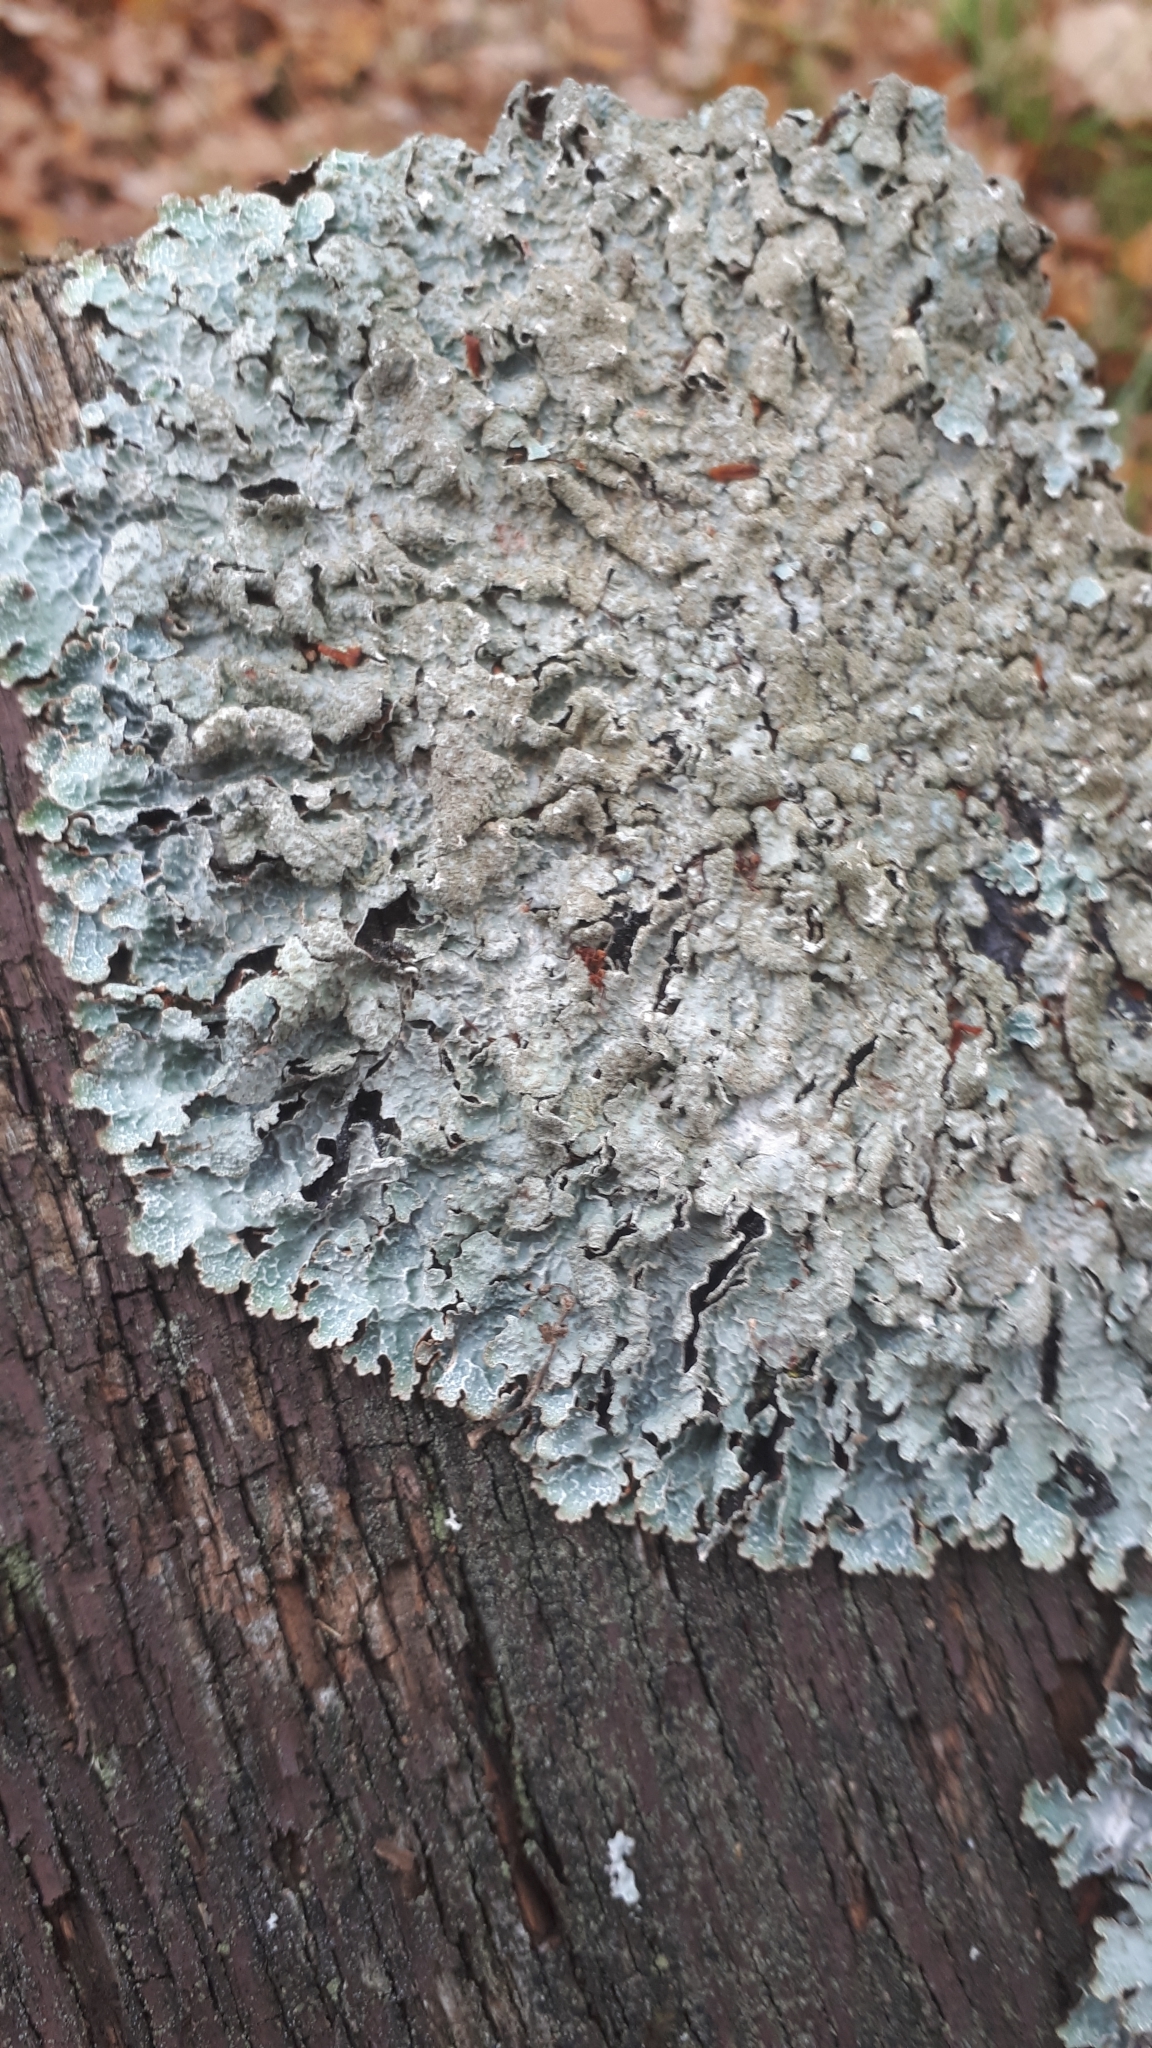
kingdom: Fungi
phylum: Ascomycota
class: Lecanoromycetes
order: Lecanorales
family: Parmeliaceae
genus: Parmelia
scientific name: Parmelia sulcata
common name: Netted shield lichen
